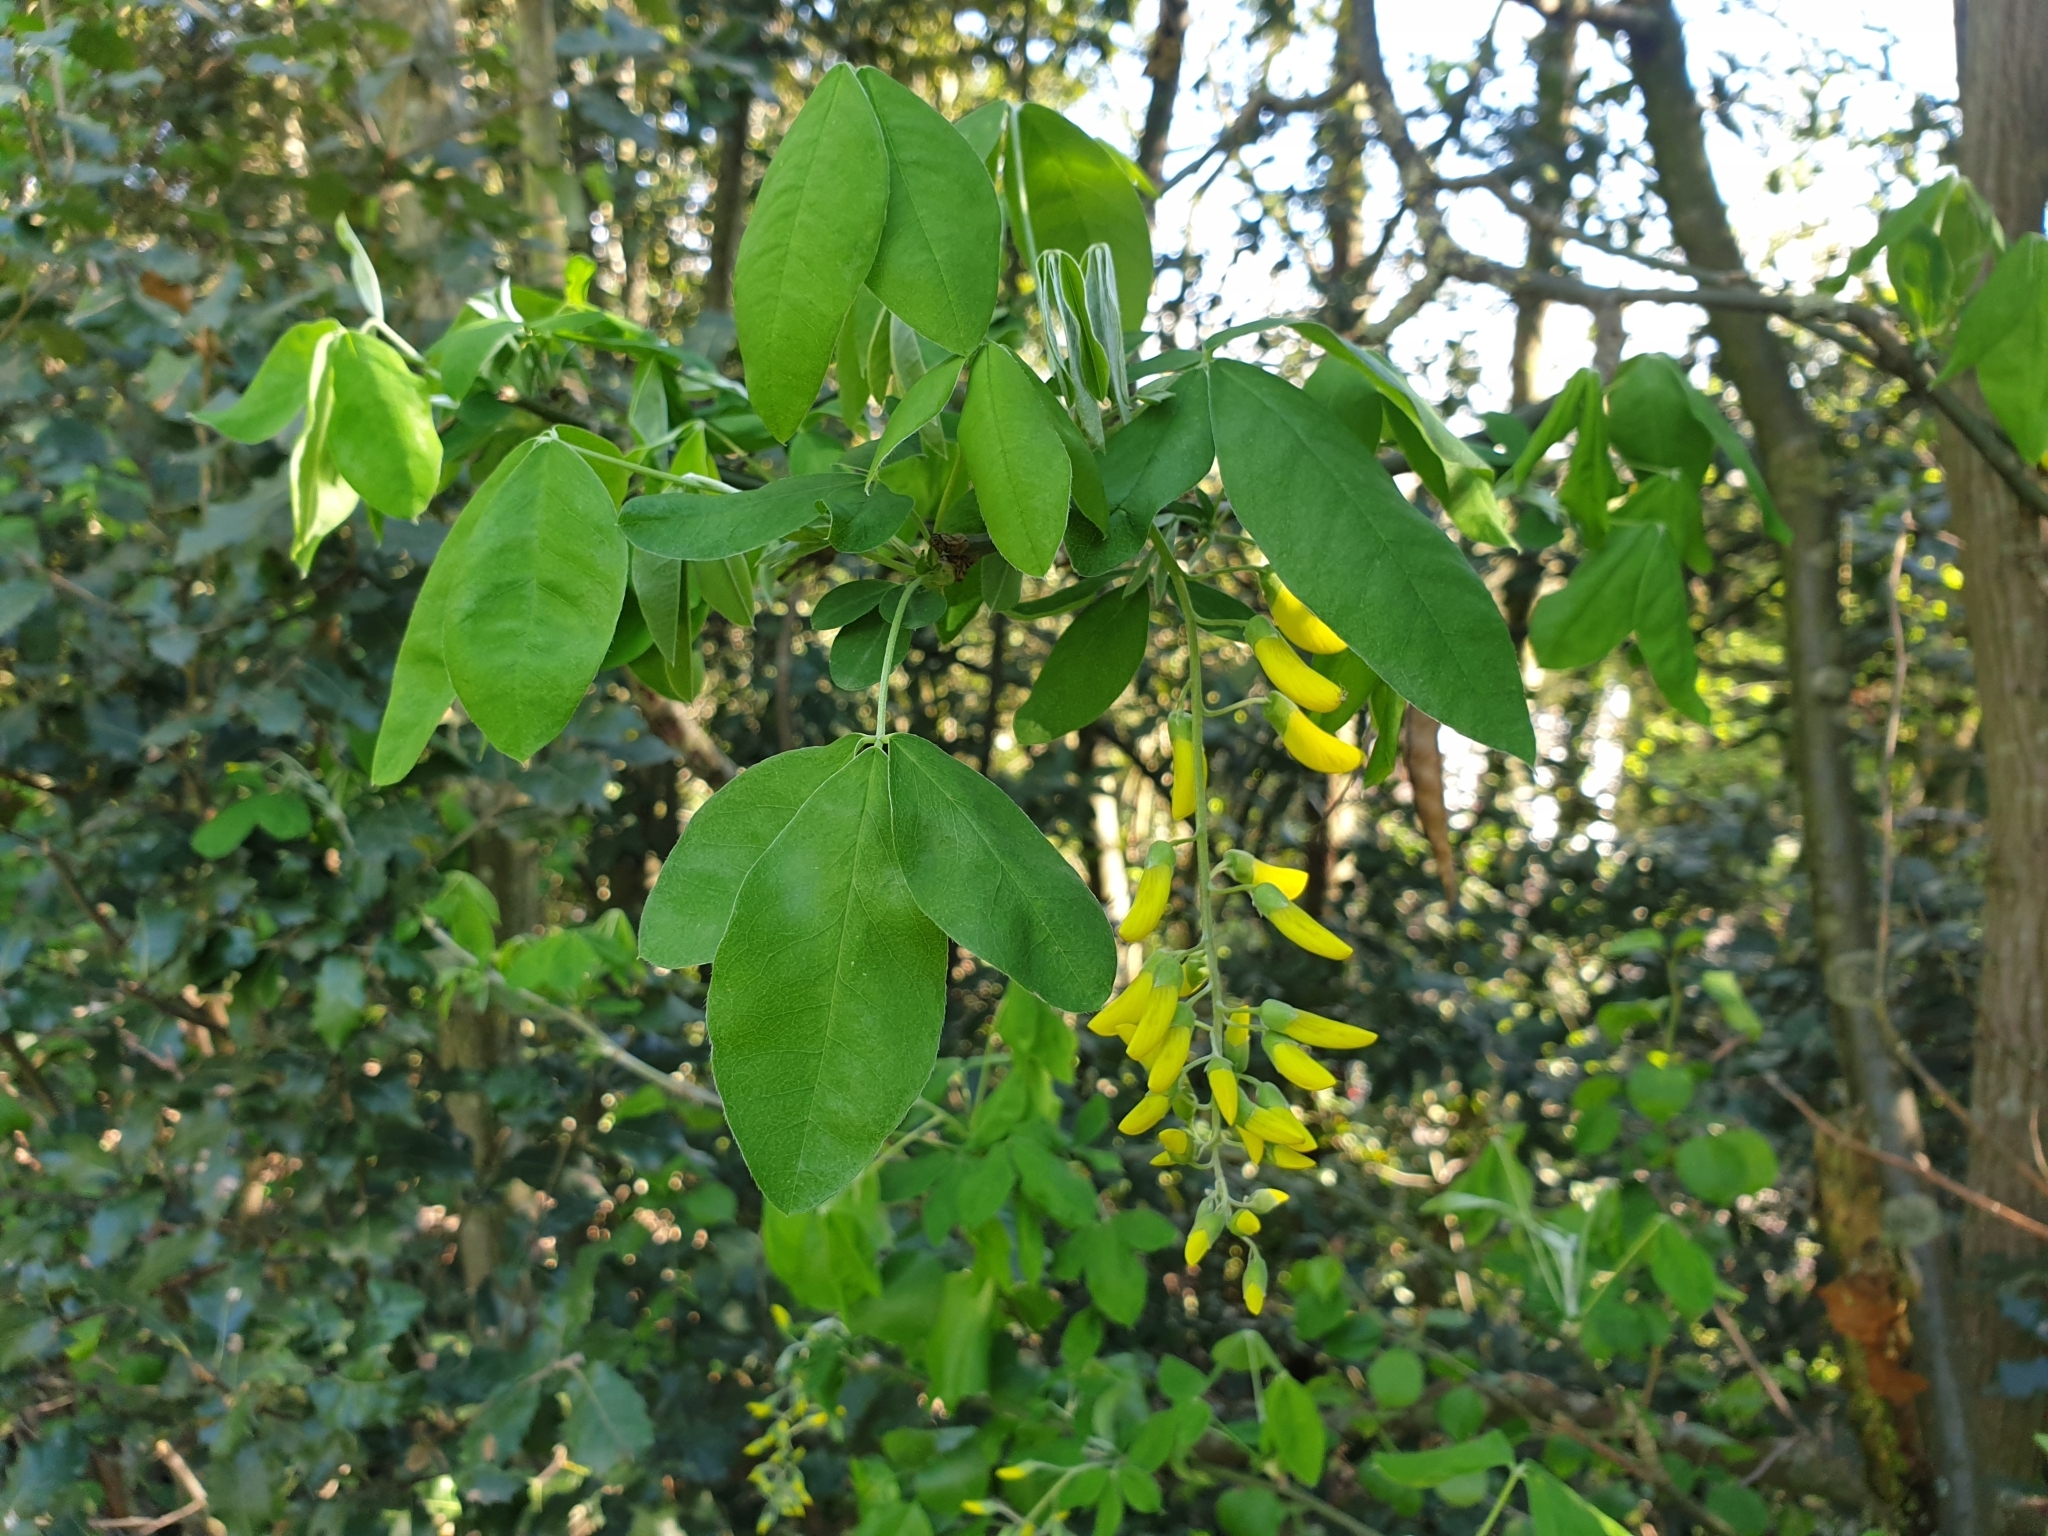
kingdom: Plantae
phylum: Tracheophyta
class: Magnoliopsida
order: Fabales
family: Fabaceae
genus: Laburnum
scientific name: Laburnum anagyroides
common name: Laburnum
